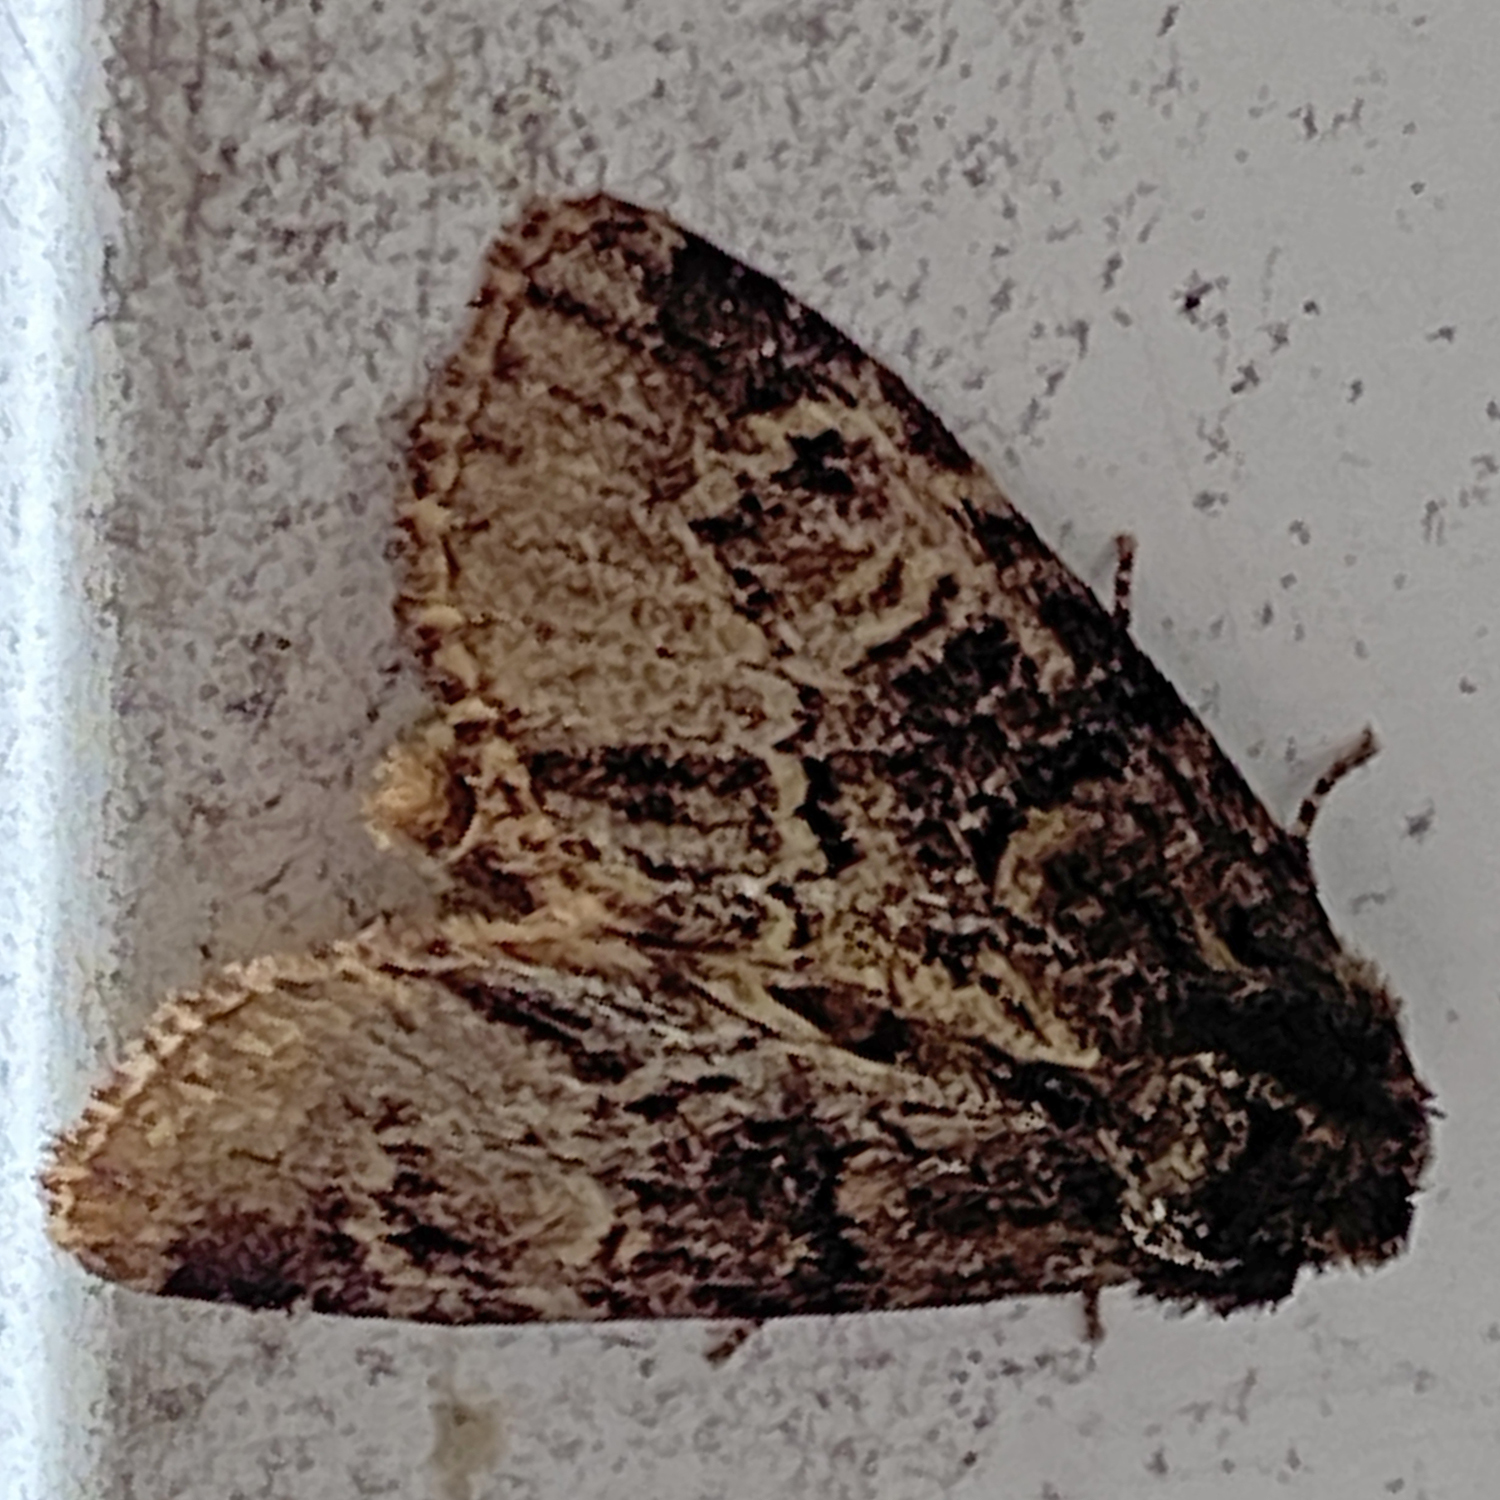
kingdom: Animalia
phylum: Arthropoda
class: Insecta
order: Lepidoptera
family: Noctuidae
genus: Phosphila
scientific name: Phosphila turbulenta
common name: Turbulent phosphila moth
